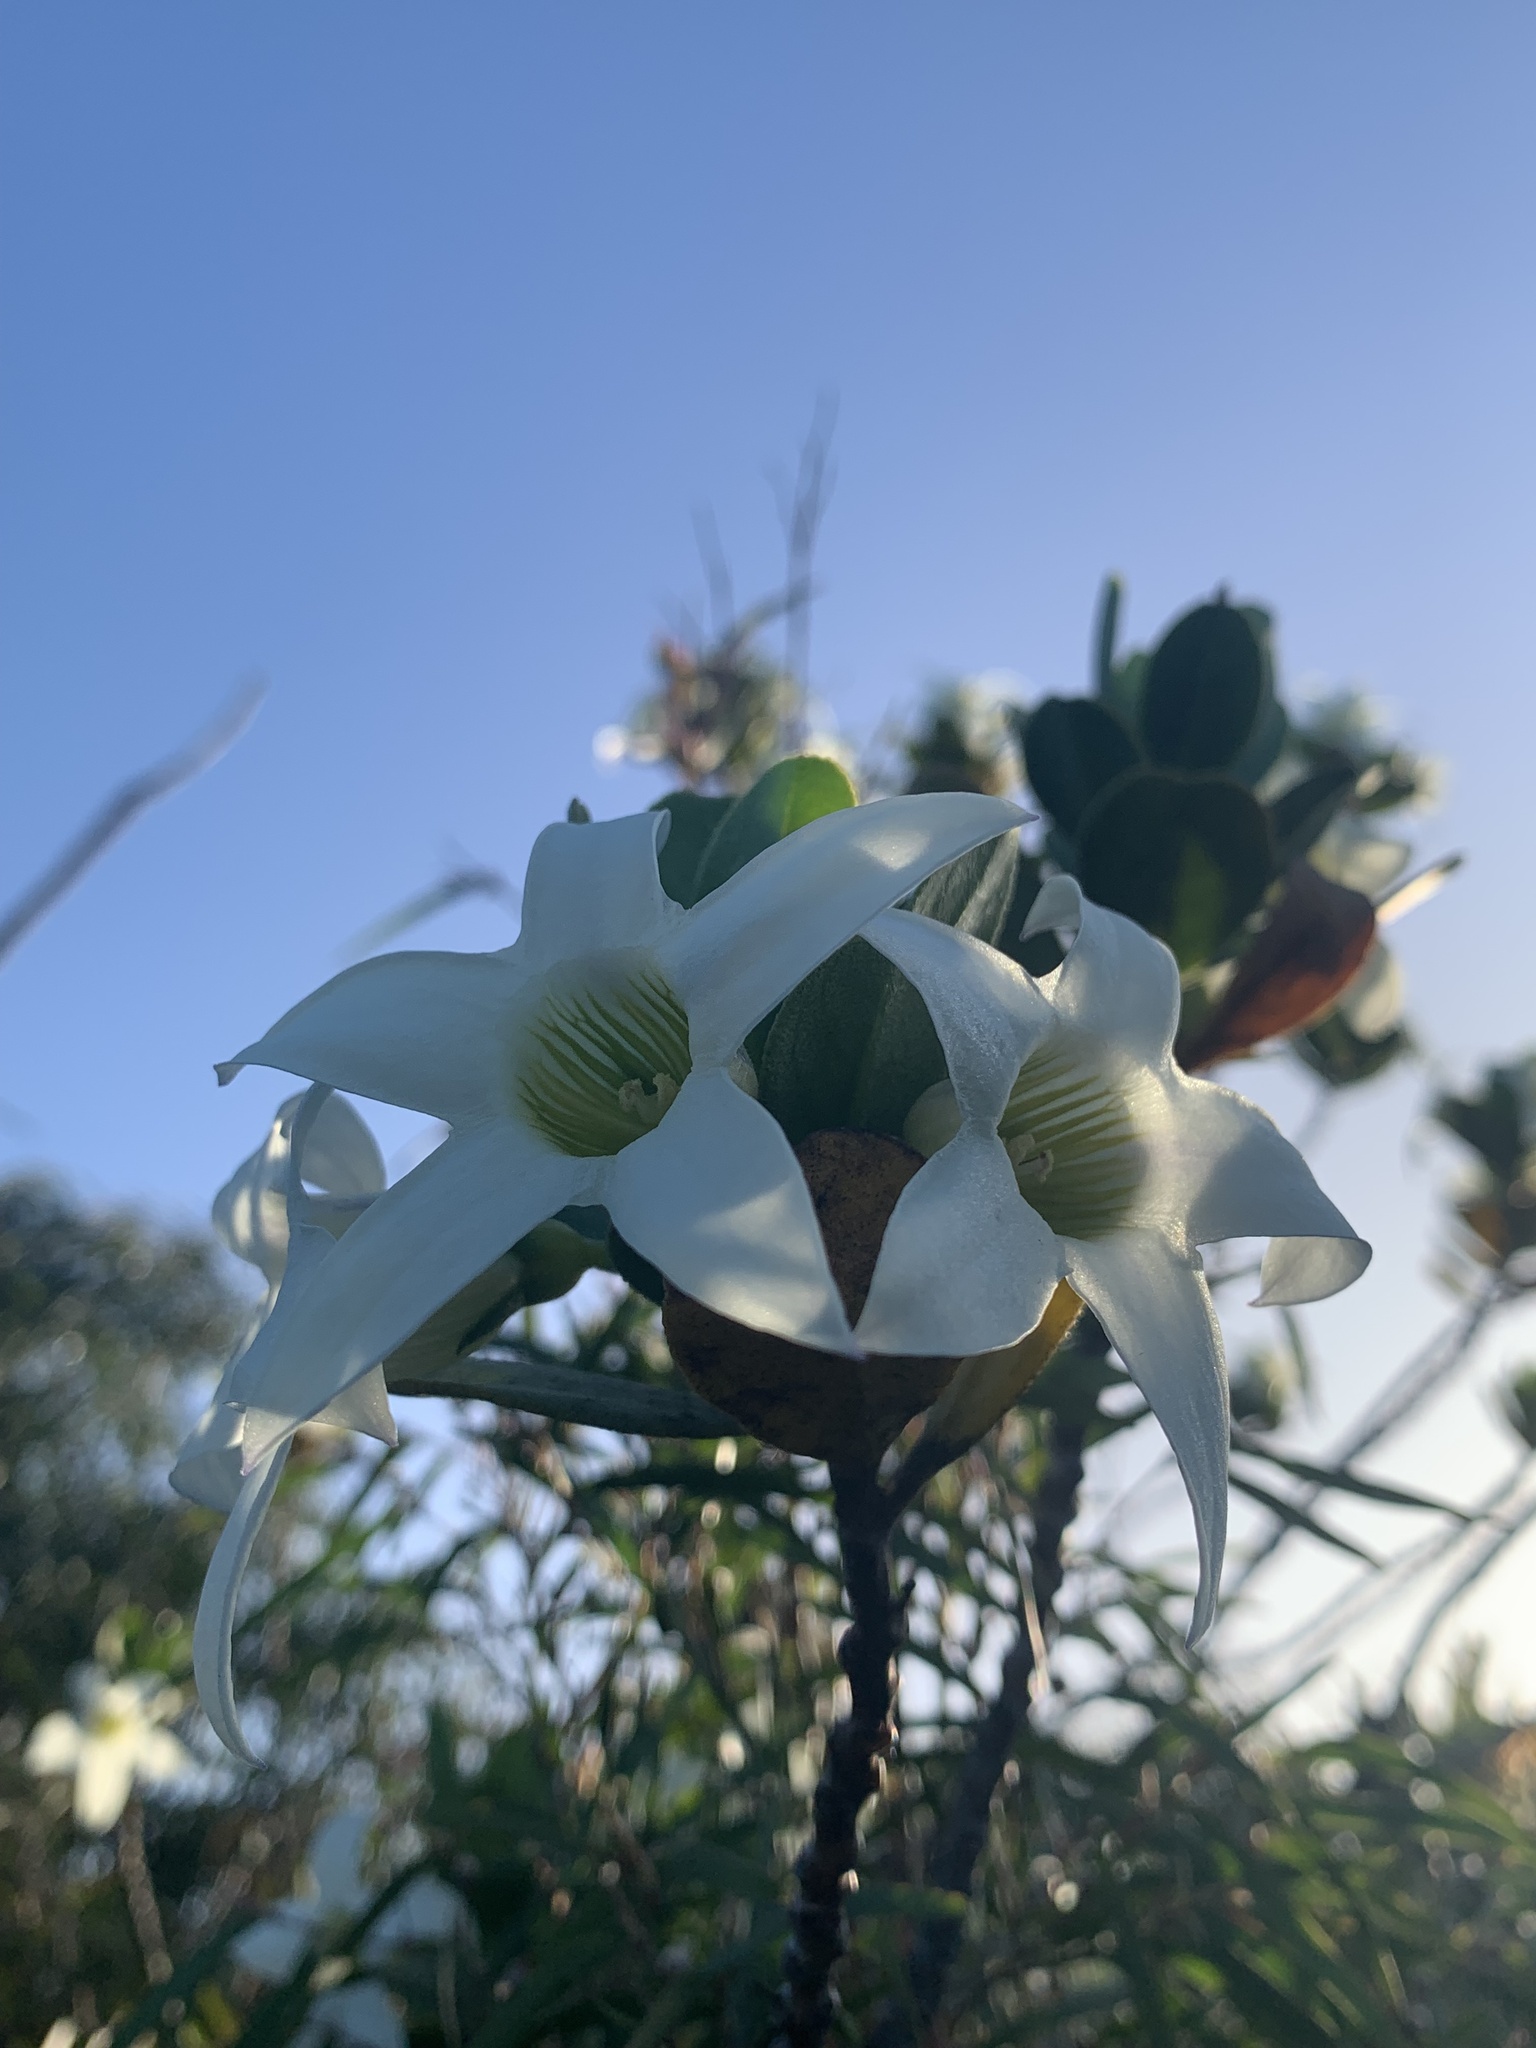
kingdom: Plantae
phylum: Tracheophyta
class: Magnoliopsida
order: Solanales
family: Solanaceae
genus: Anthocercis
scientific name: Anthocercis viscosa
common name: Sticky tailflower
